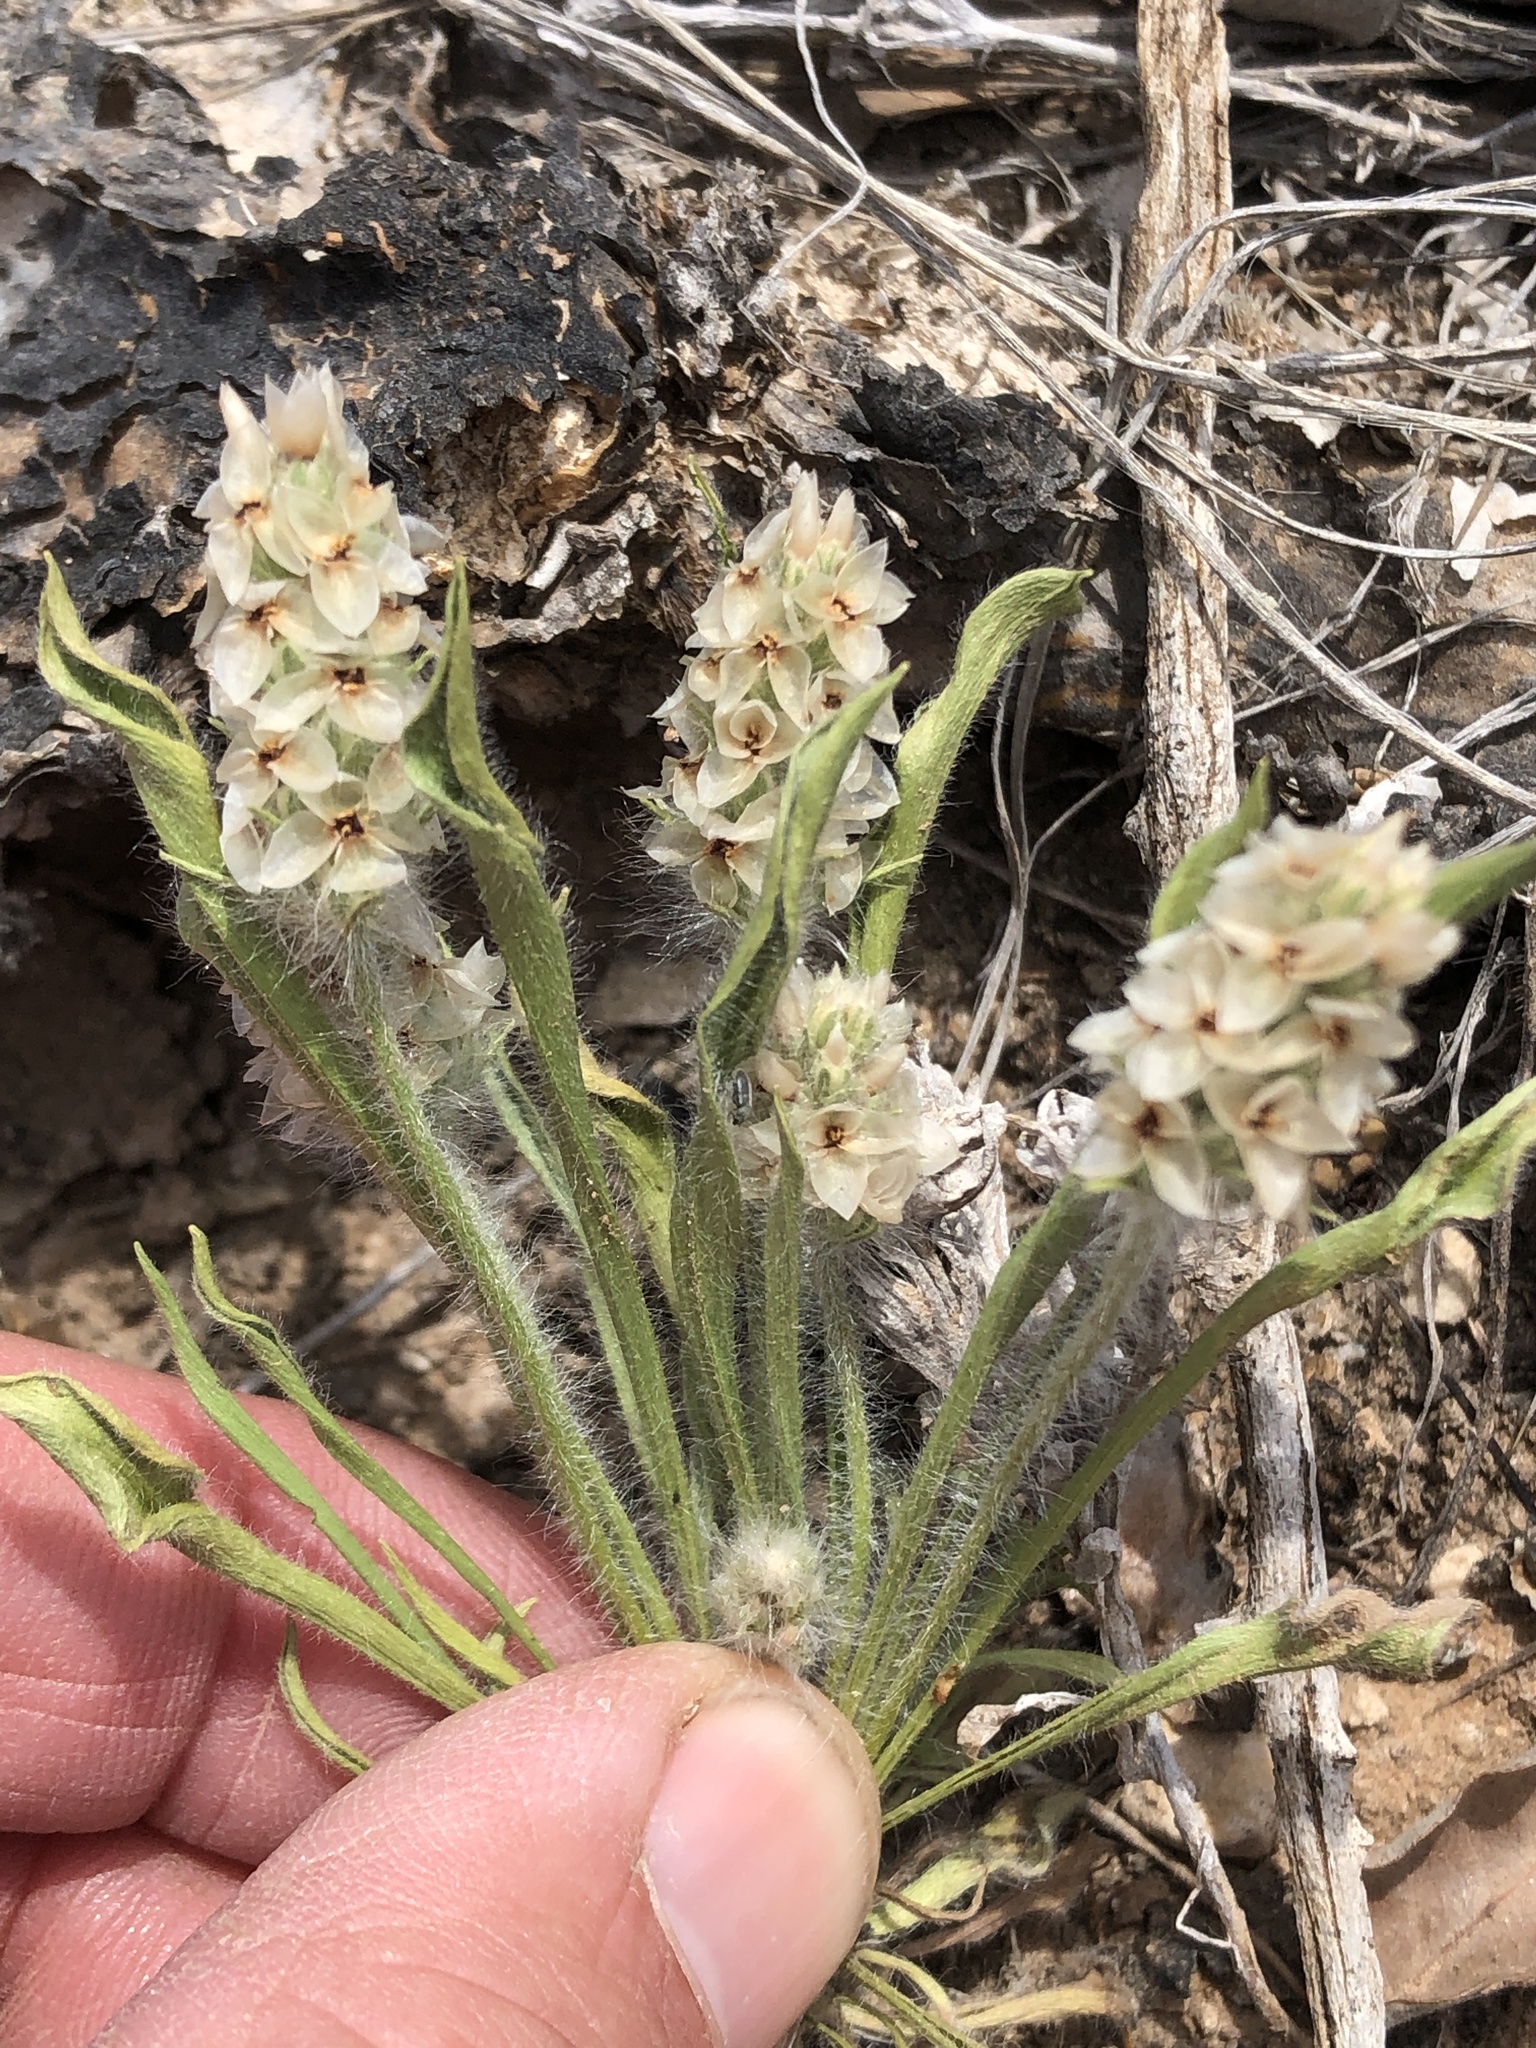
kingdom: Plantae
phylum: Tracheophyta
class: Magnoliopsida
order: Lamiales
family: Plantaginaceae
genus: Plantago
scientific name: Plantago helleri
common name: Heller's plantain
